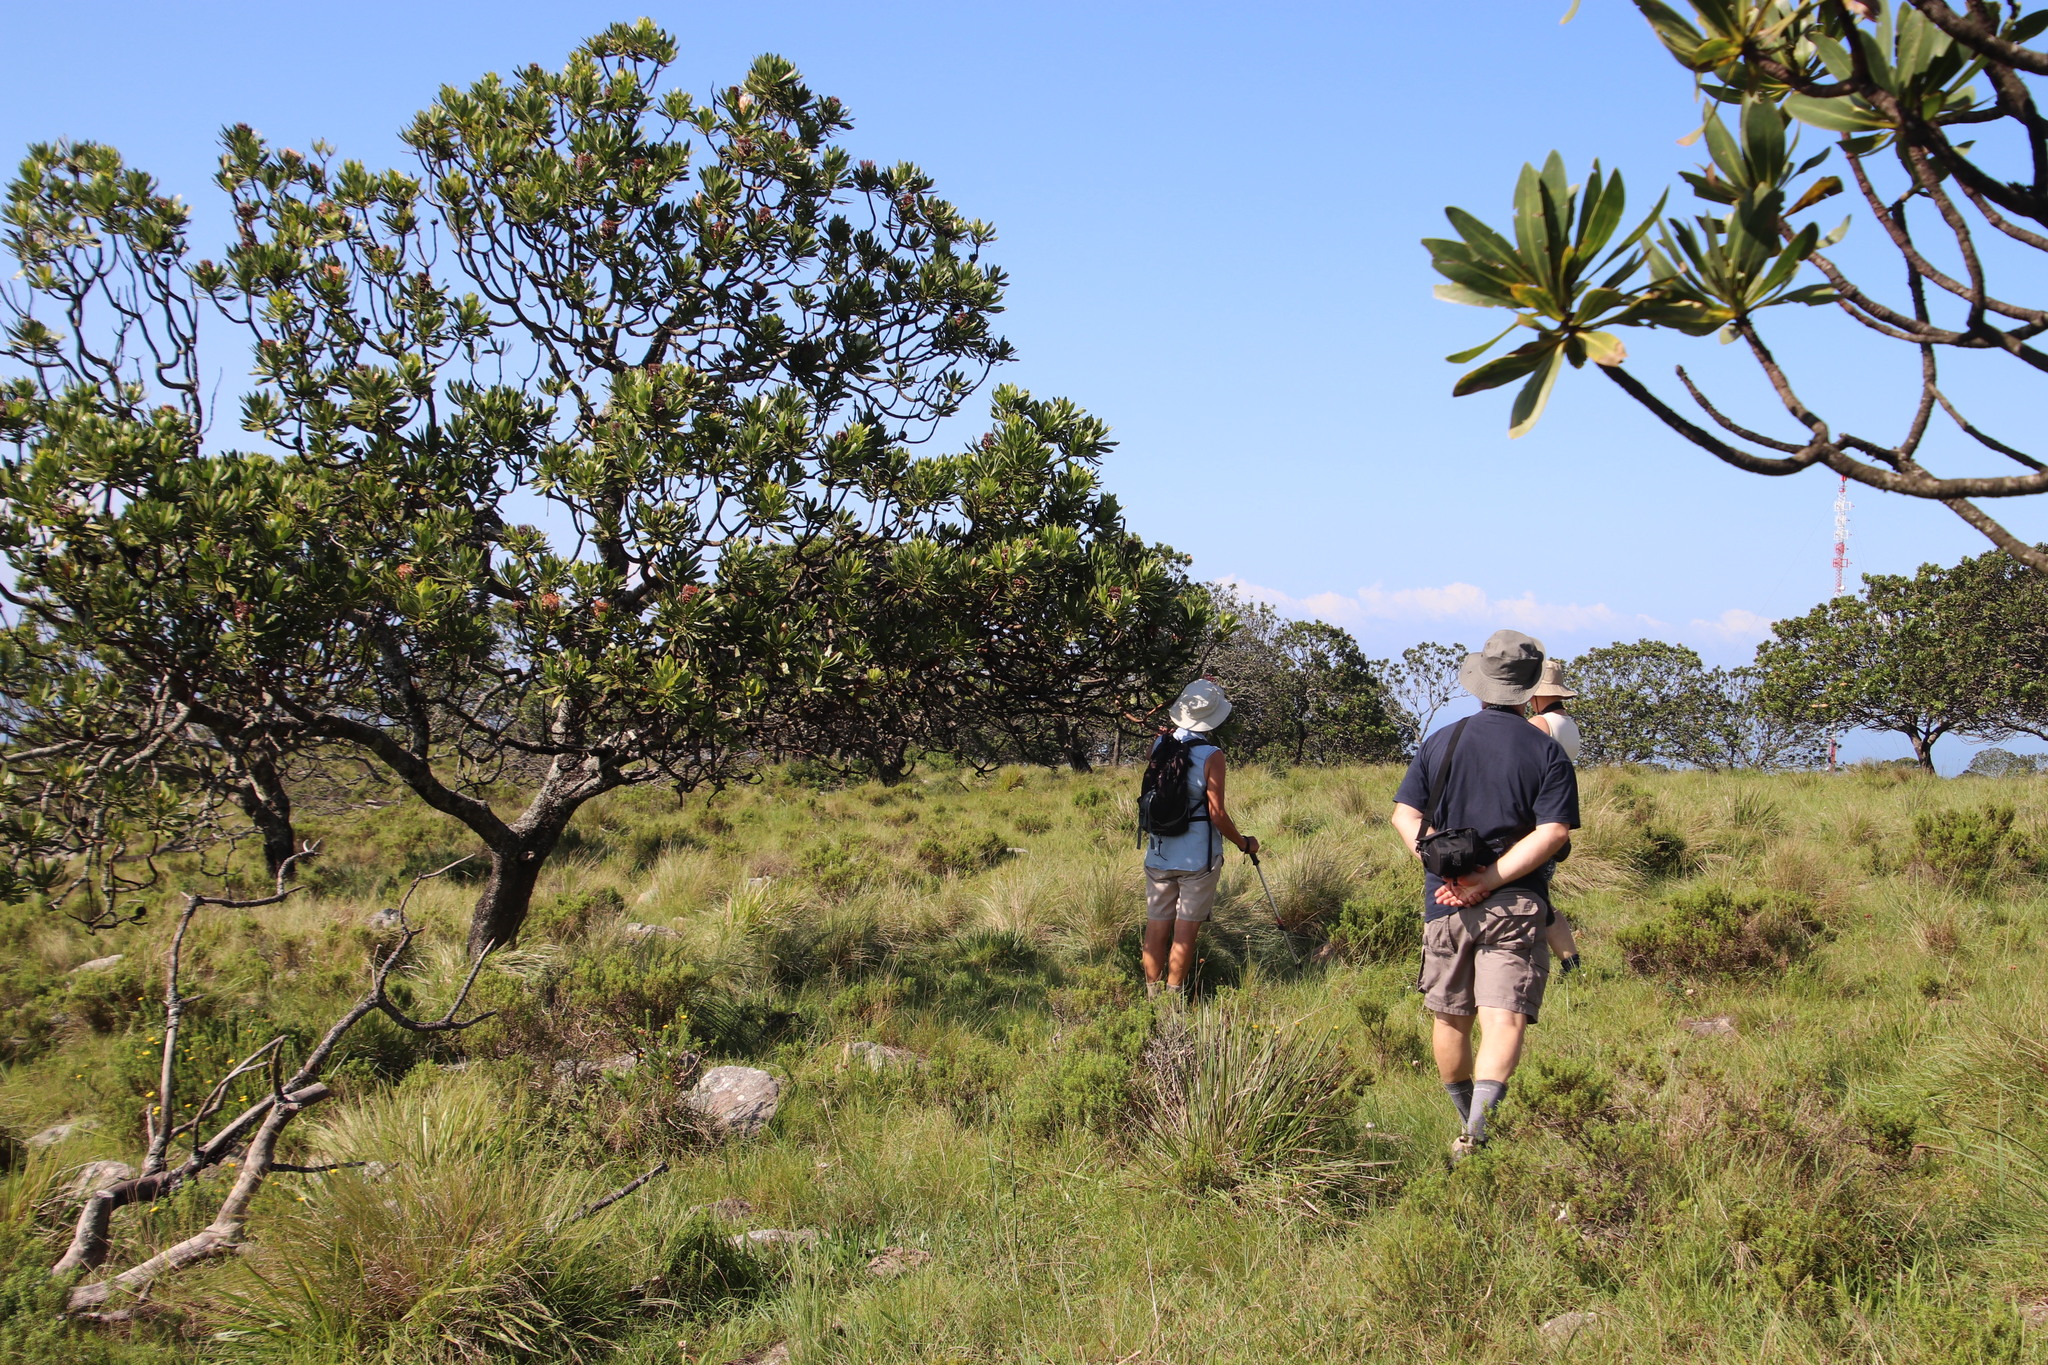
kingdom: Plantae
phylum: Tracheophyta
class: Magnoliopsida
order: Proteales
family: Proteaceae
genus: Protea
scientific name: Protea roupelliae
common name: Silver sugarbush
